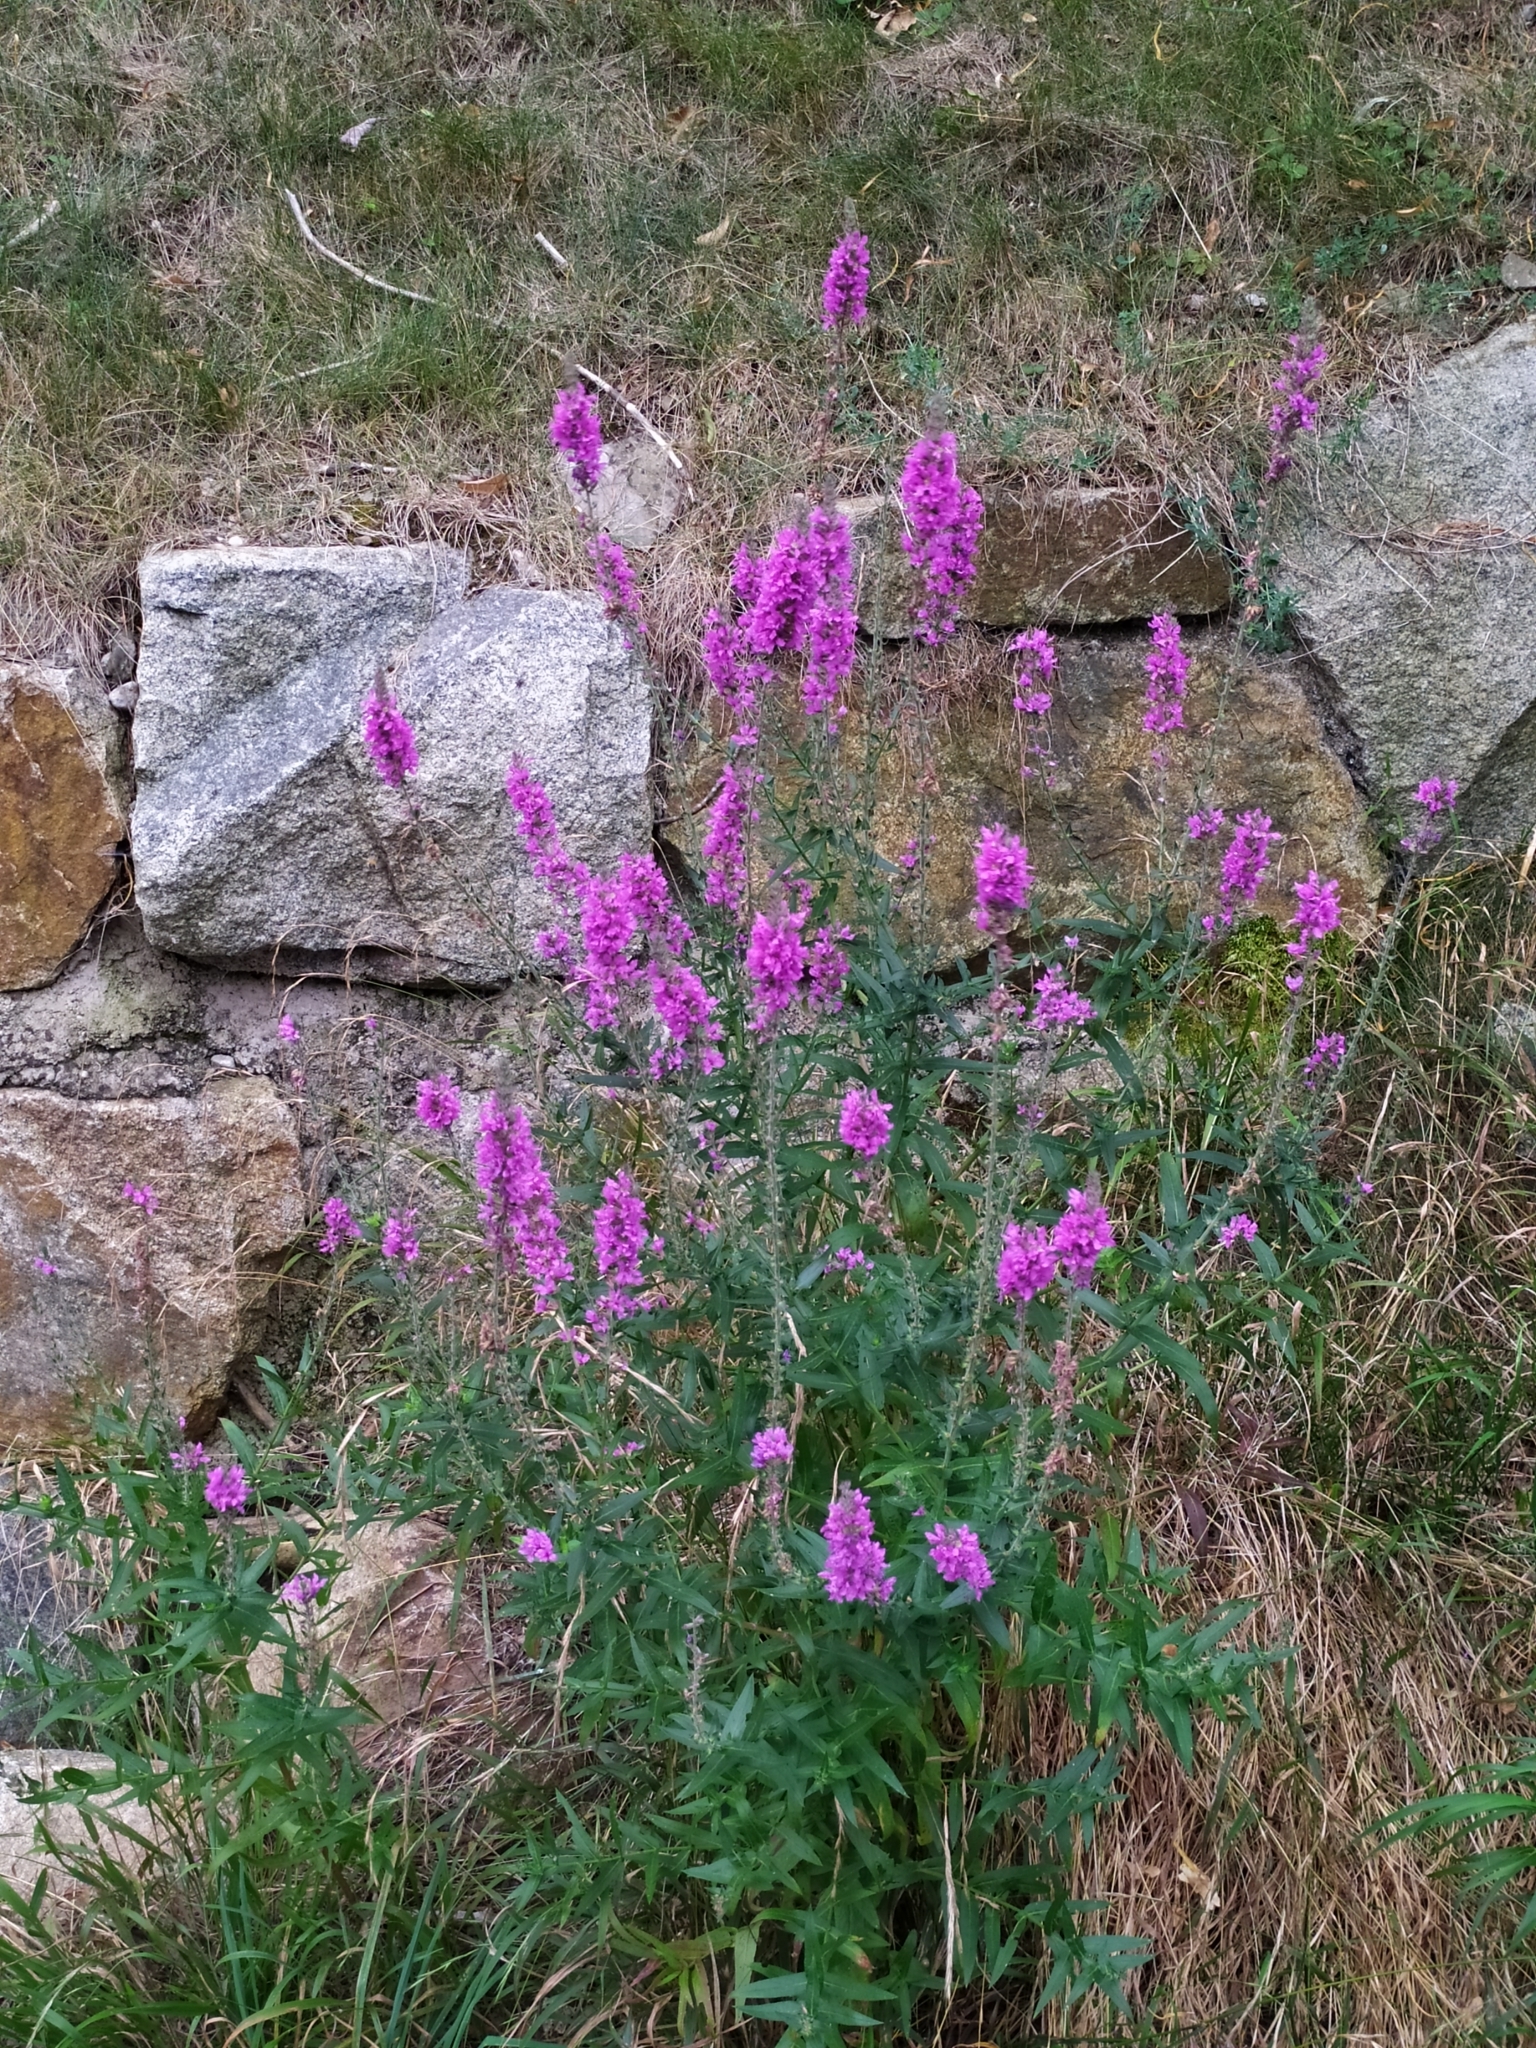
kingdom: Plantae
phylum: Tracheophyta
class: Magnoliopsida
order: Myrtales
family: Lythraceae
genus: Lythrum
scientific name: Lythrum salicaria
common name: Purple loosestrife
